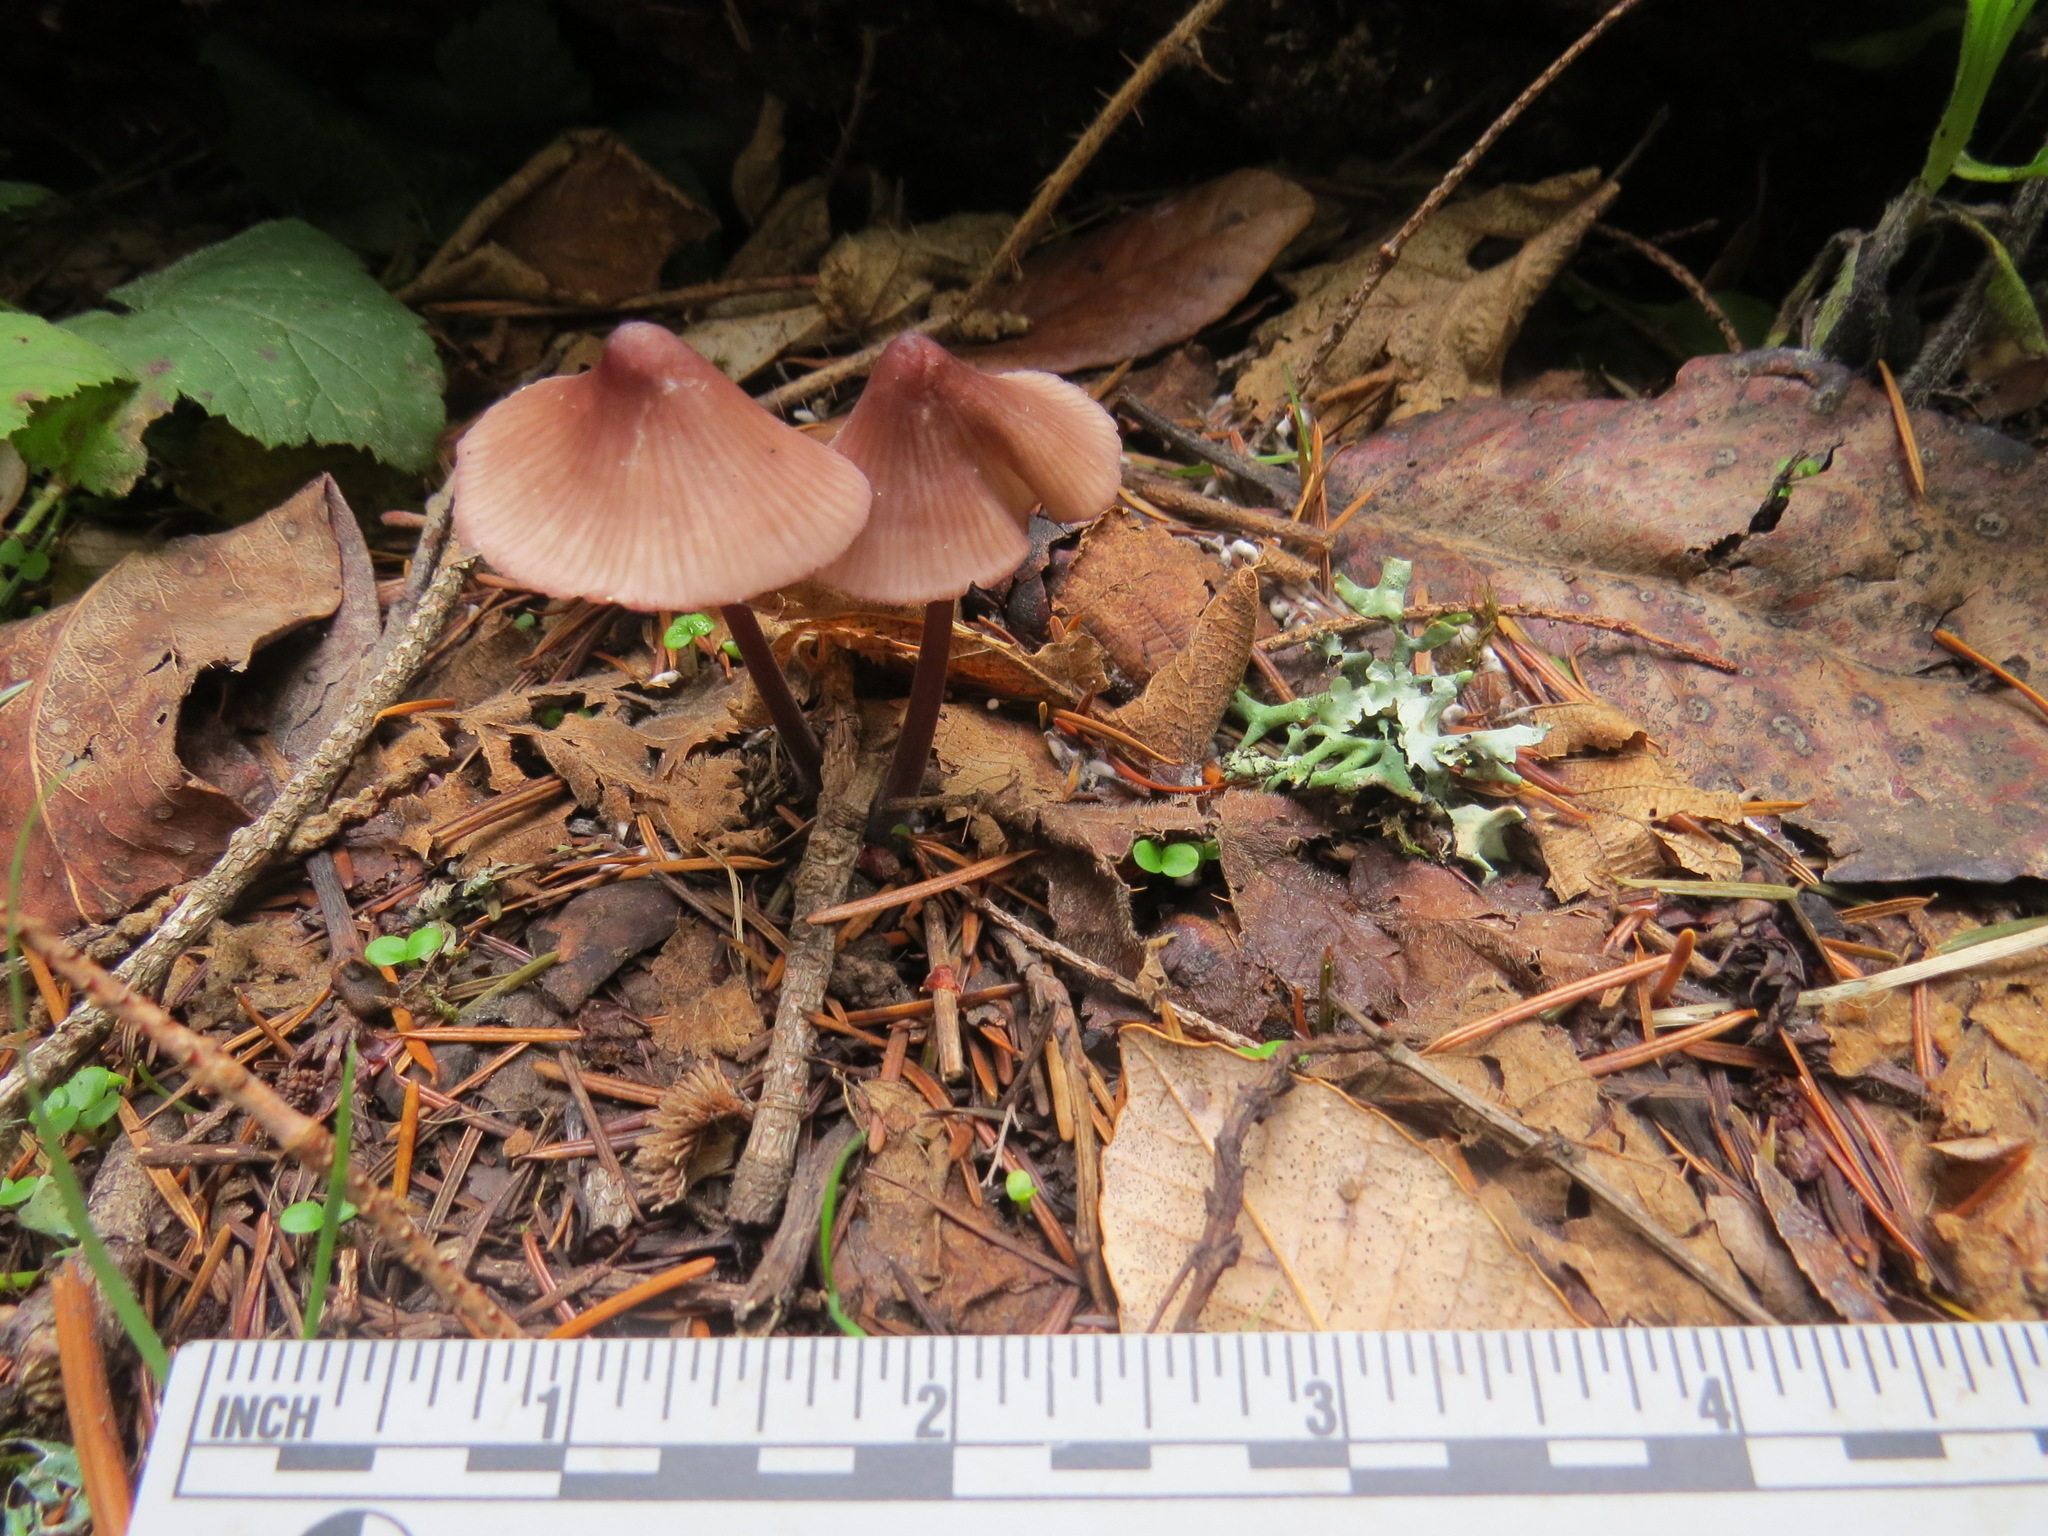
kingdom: Fungi
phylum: Basidiomycota
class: Agaricomycetes
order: Agaricales
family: Mycenaceae
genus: Mycena
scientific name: Mycena purpureofusca
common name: Purple edge bonnet
